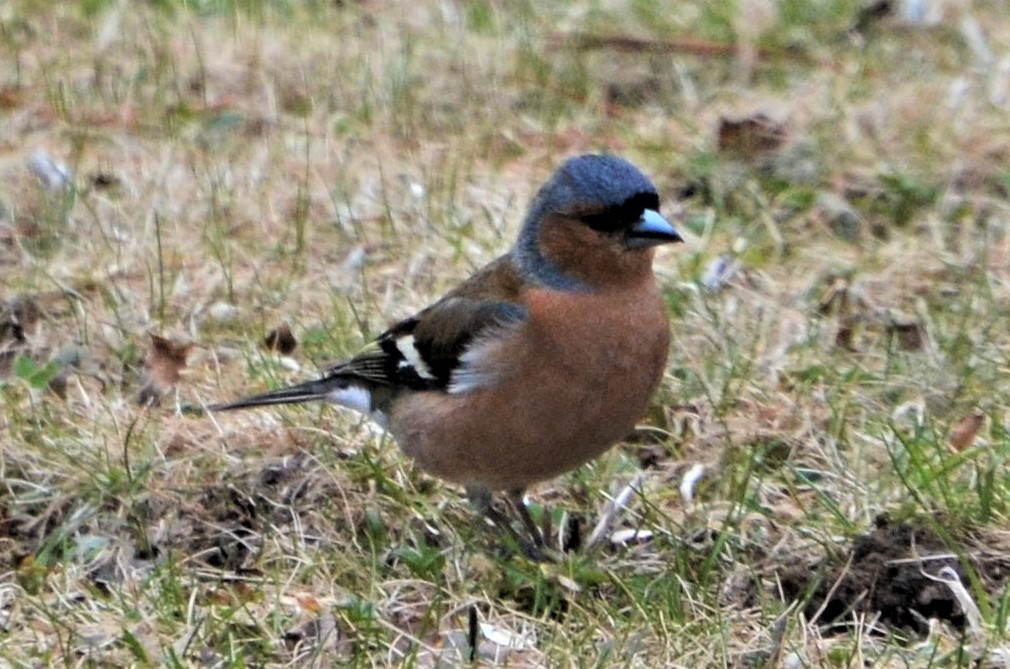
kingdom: Animalia
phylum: Chordata
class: Aves
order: Passeriformes
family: Fringillidae
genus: Fringilla
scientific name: Fringilla coelebs
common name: Common chaffinch
